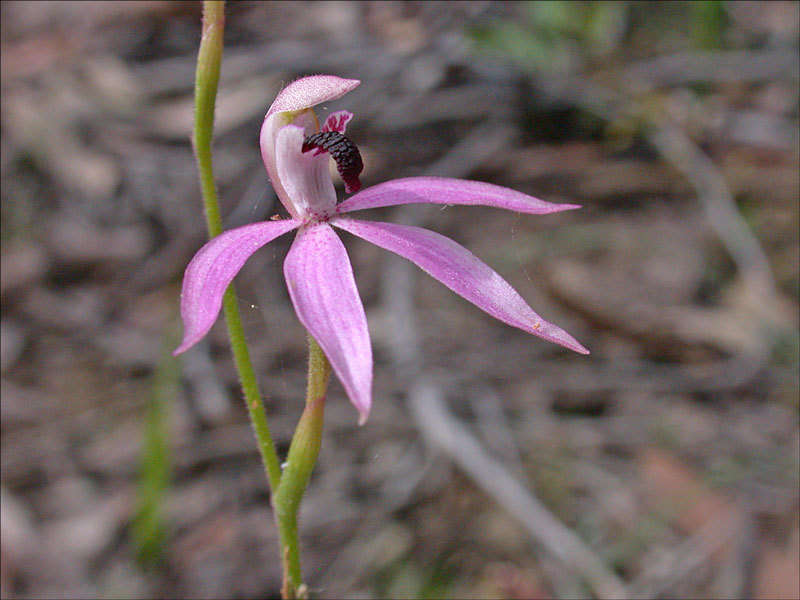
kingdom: Plantae
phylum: Tracheophyta
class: Liliopsida
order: Asparagales
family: Orchidaceae
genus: Caladenia
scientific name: Caladenia congesta
